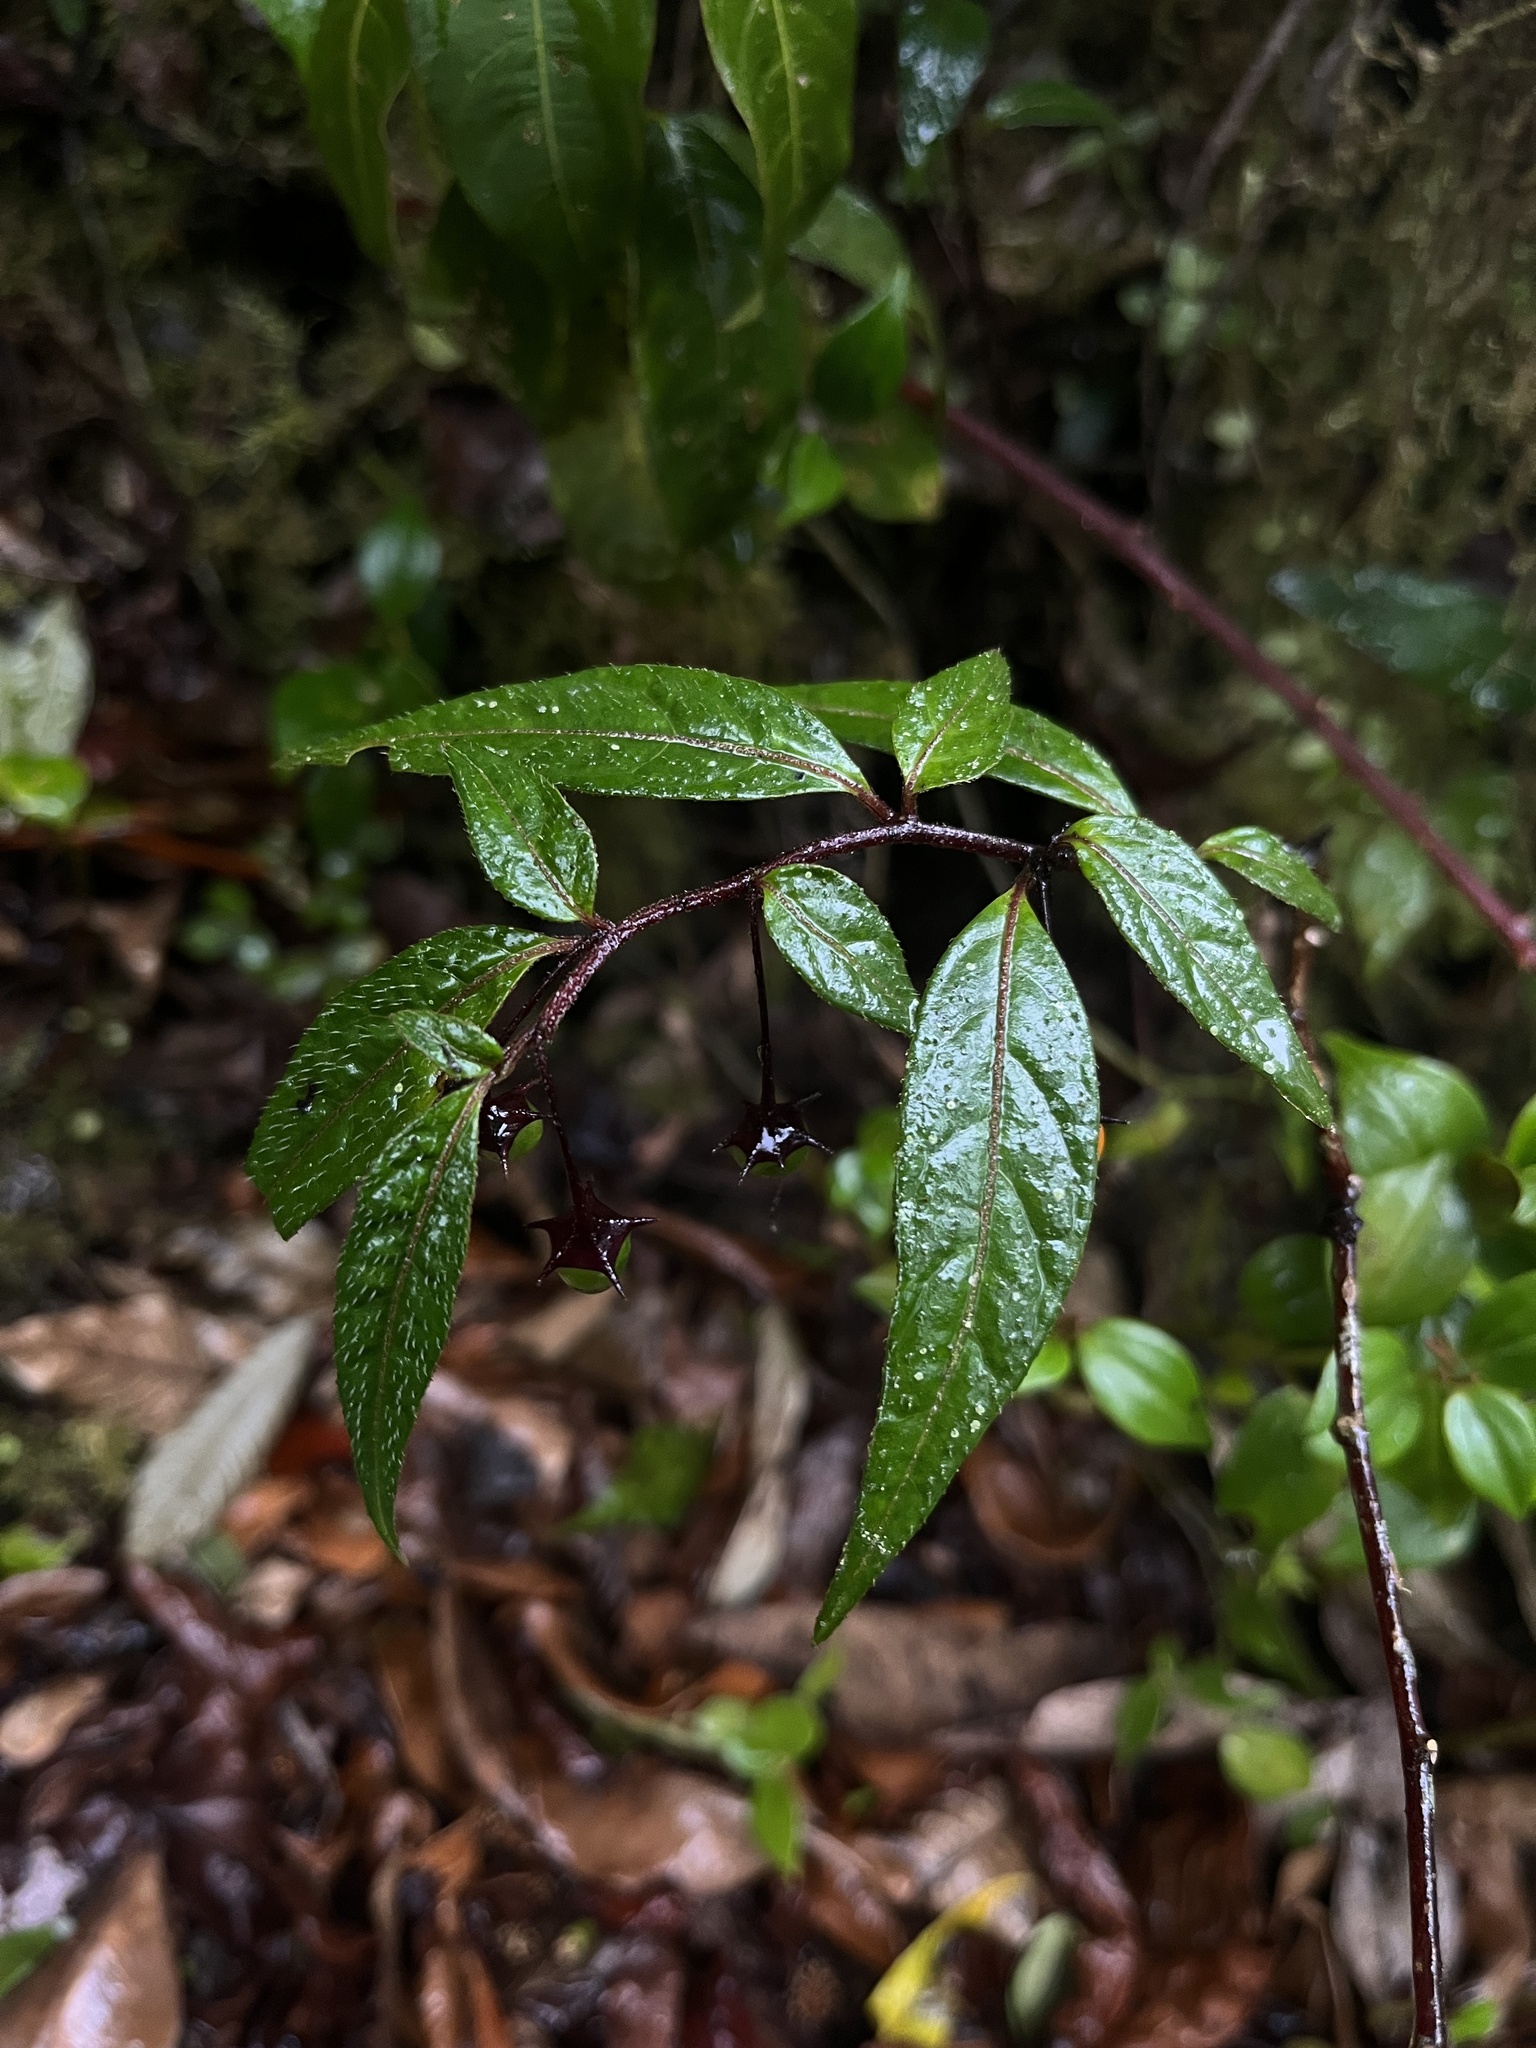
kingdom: Plantae
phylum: Tracheophyta
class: Magnoliopsida
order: Solanales
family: Solanaceae
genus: Capsicum
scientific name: Capsicum geminifolium
